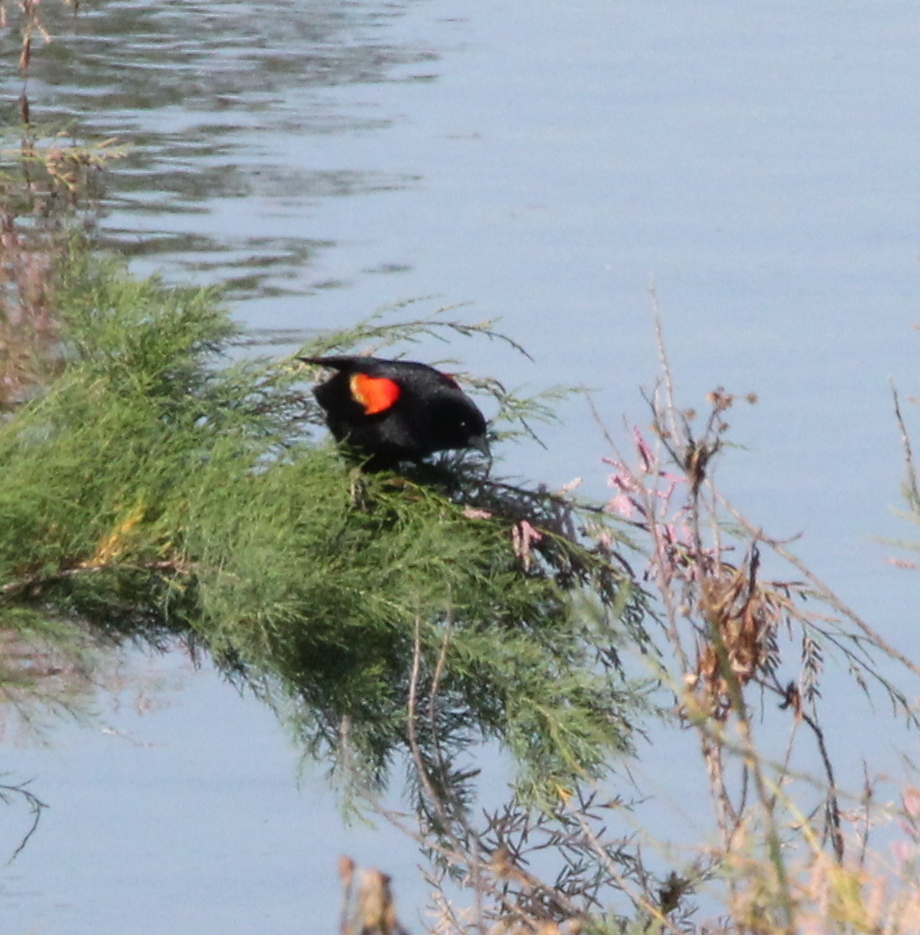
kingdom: Animalia
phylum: Chordata
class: Aves
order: Passeriformes
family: Icteridae
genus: Agelaius
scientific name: Agelaius phoeniceus
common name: Red-winged blackbird
